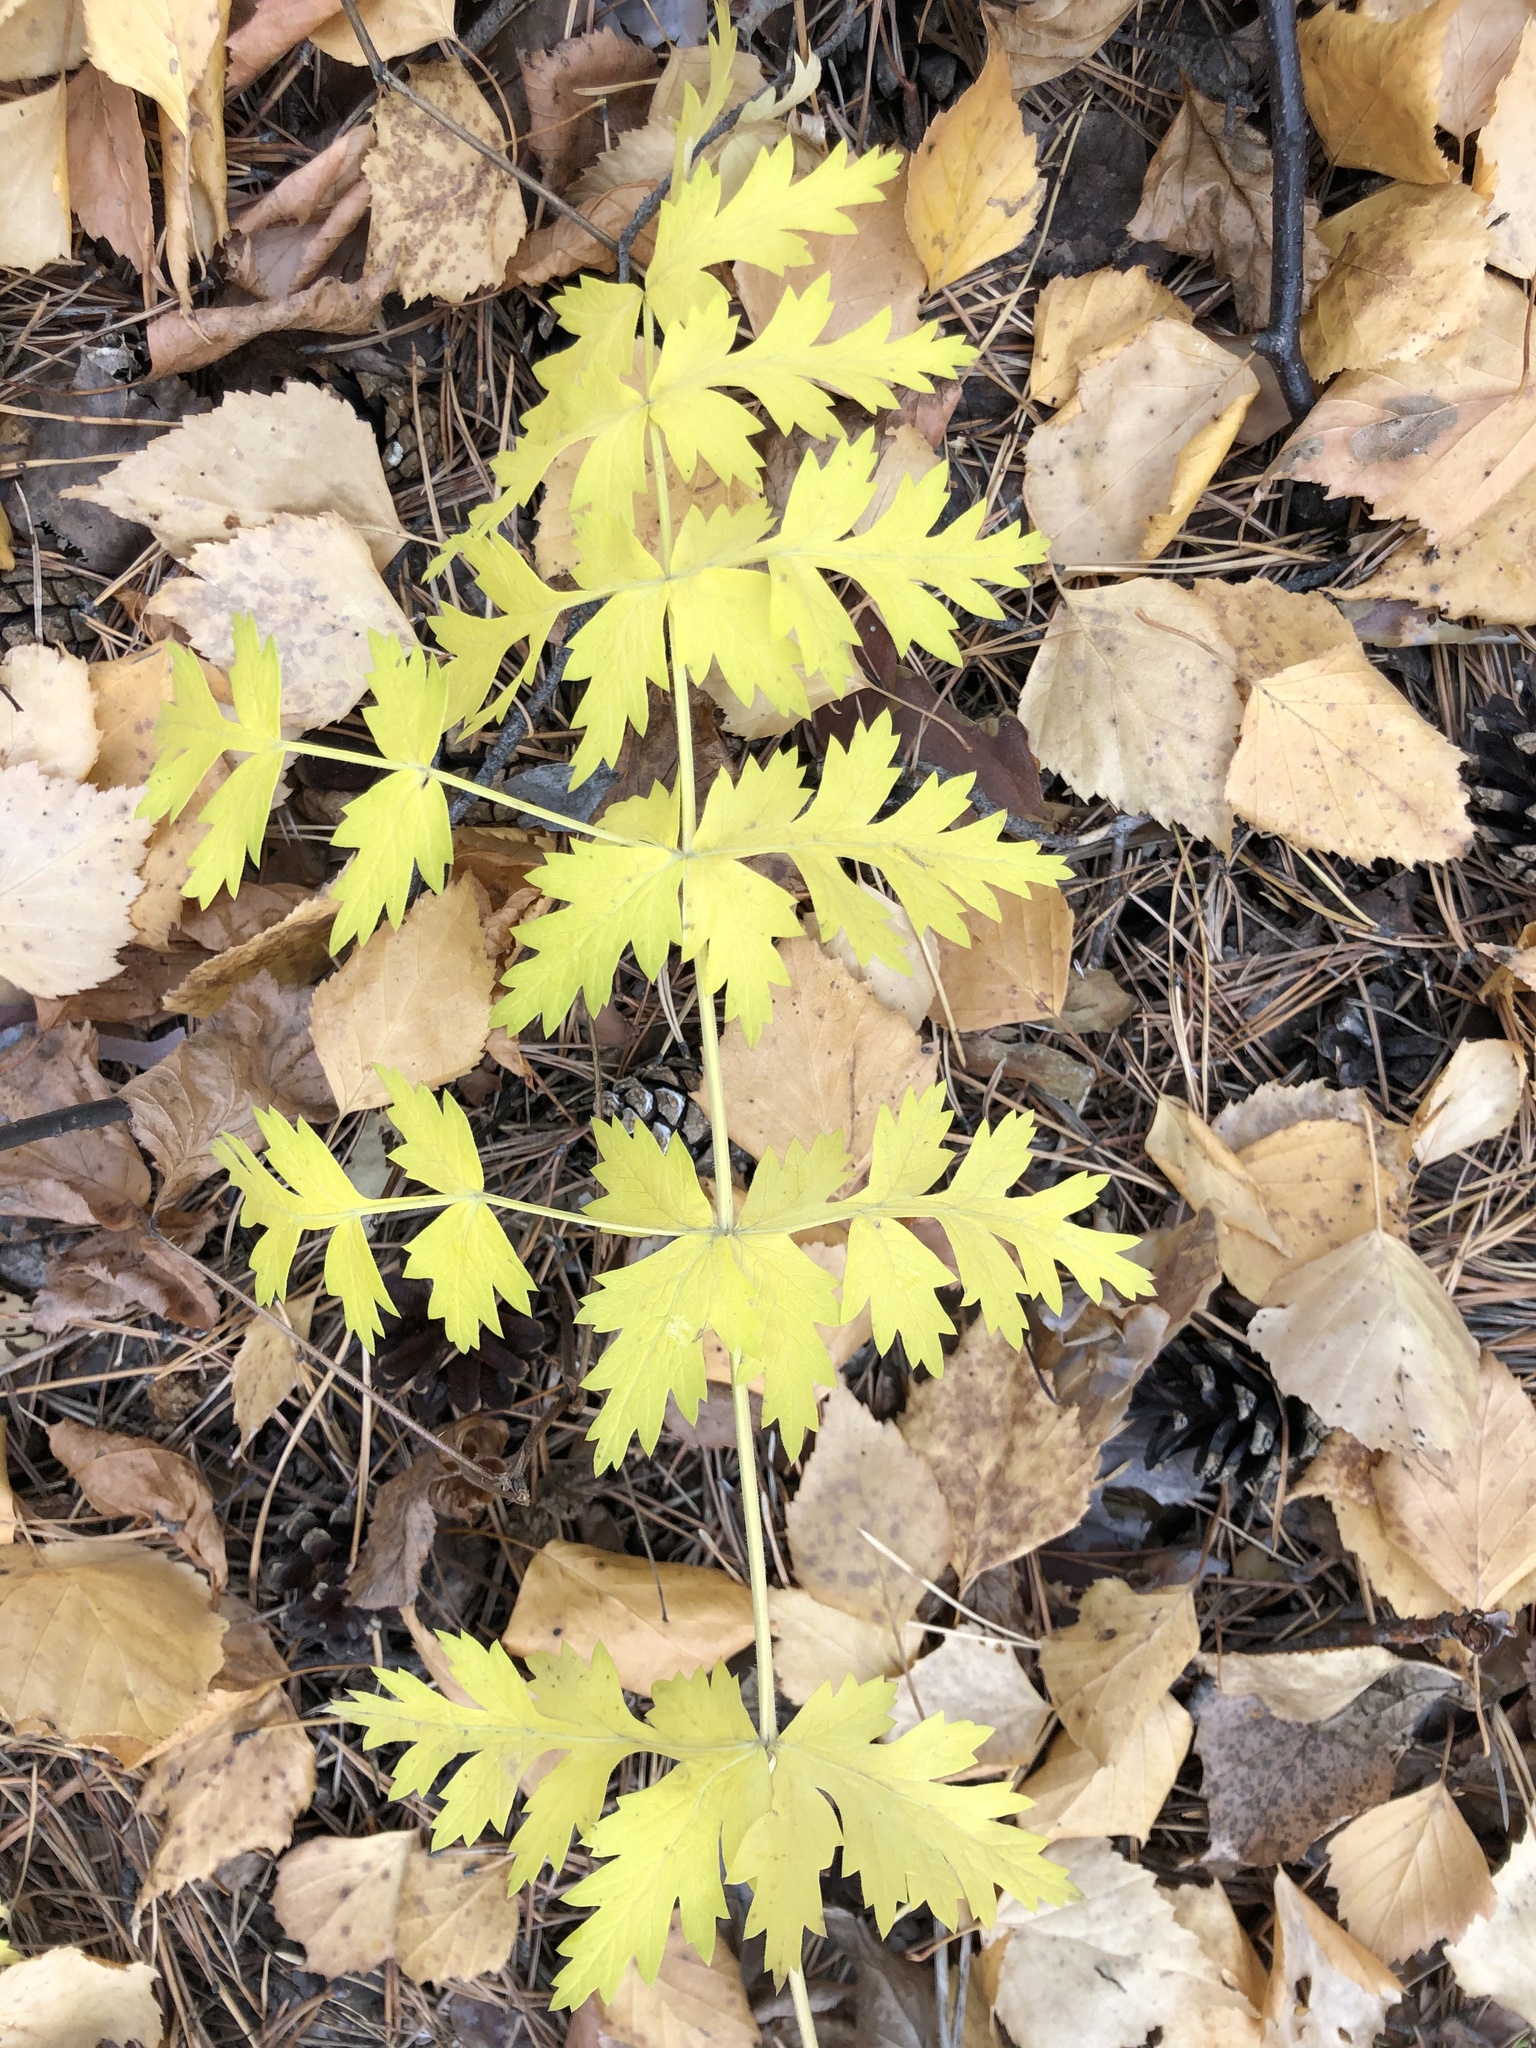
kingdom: Plantae
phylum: Tracheophyta
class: Magnoliopsida
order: Apiales
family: Apiaceae
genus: Seseli
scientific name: Seseli libanotis
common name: Mooncarrot
